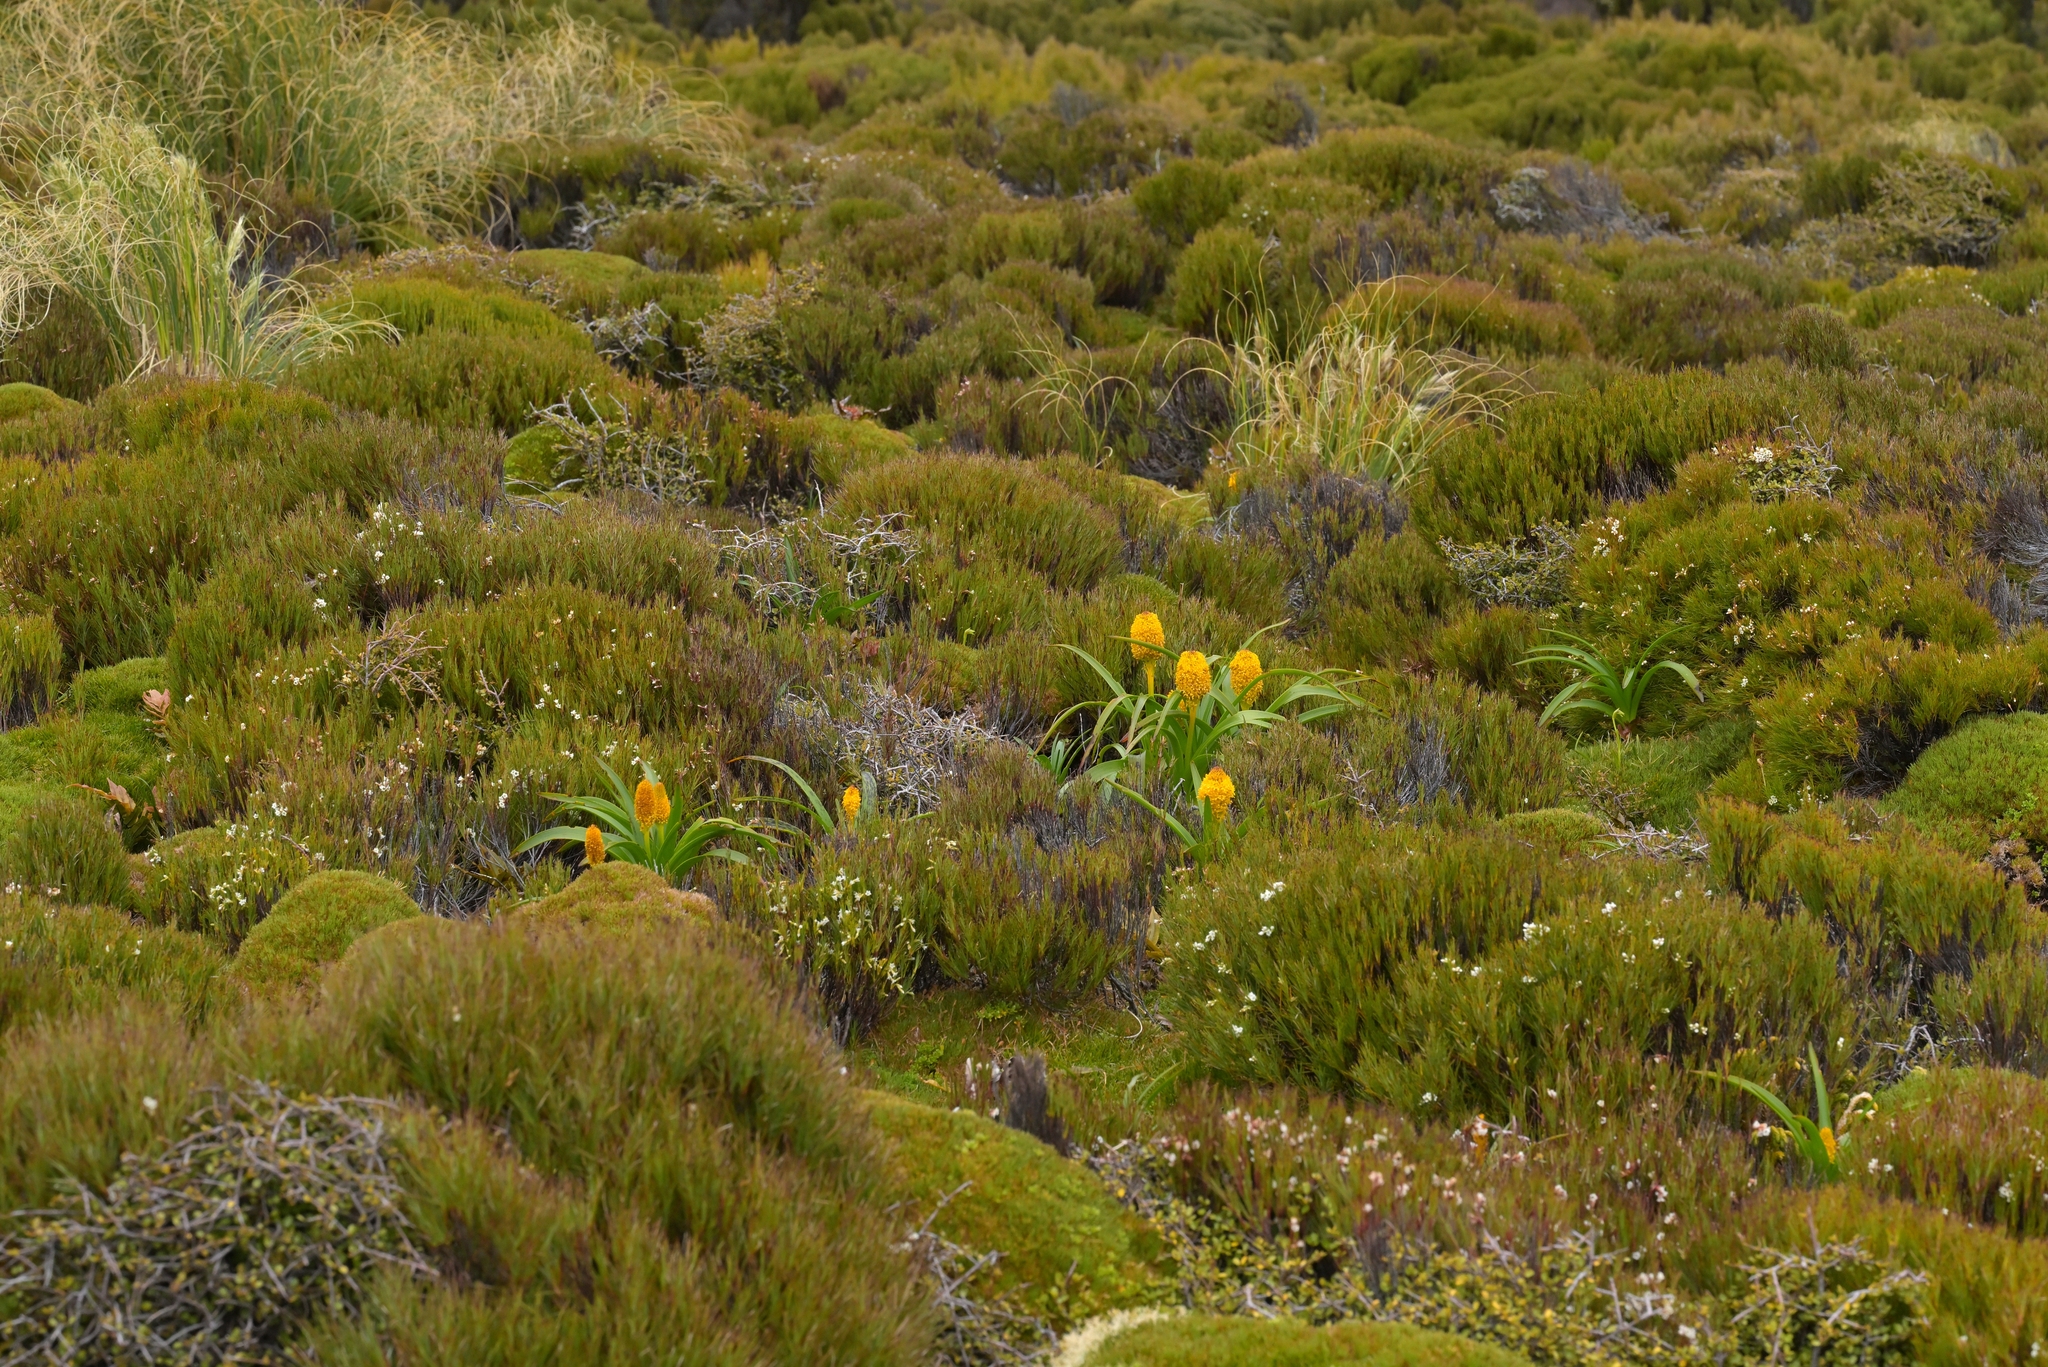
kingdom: Plantae
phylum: Tracheophyta
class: Liliopsida
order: Asparagales
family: Asphodelaceae
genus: Bulbinella
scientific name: Bulbinella rossii
